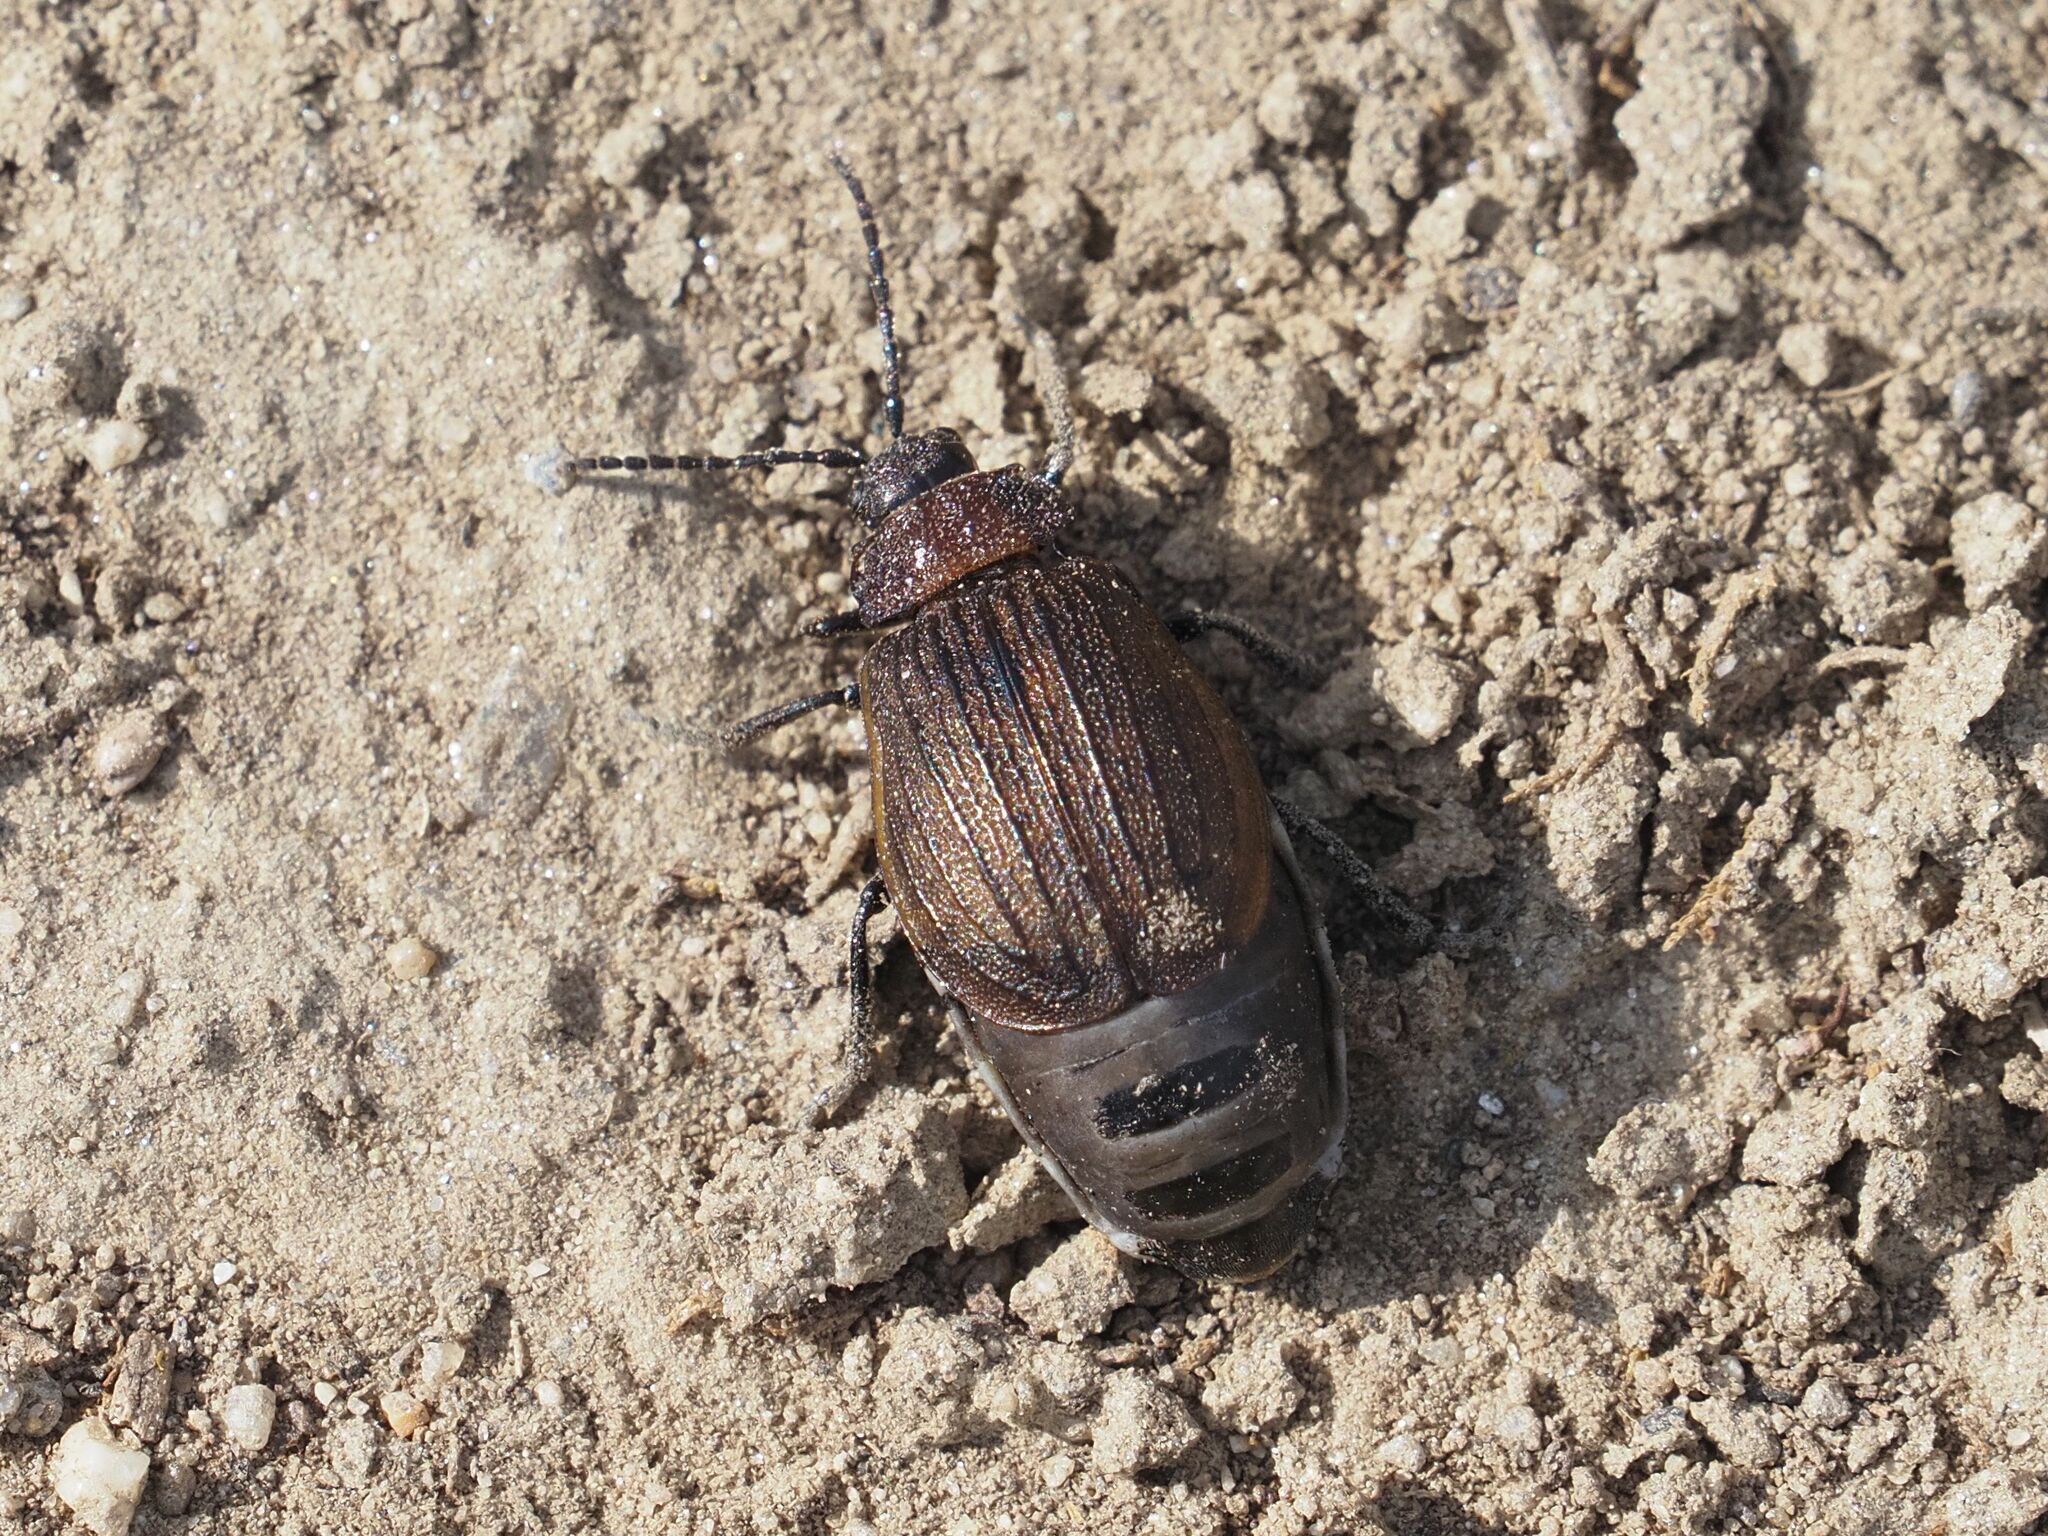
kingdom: Animalia
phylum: Arthropoda
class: Insecta
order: Coleoptera
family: Chrysomelidae
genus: Galeruca
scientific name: Galeruca pomonae
